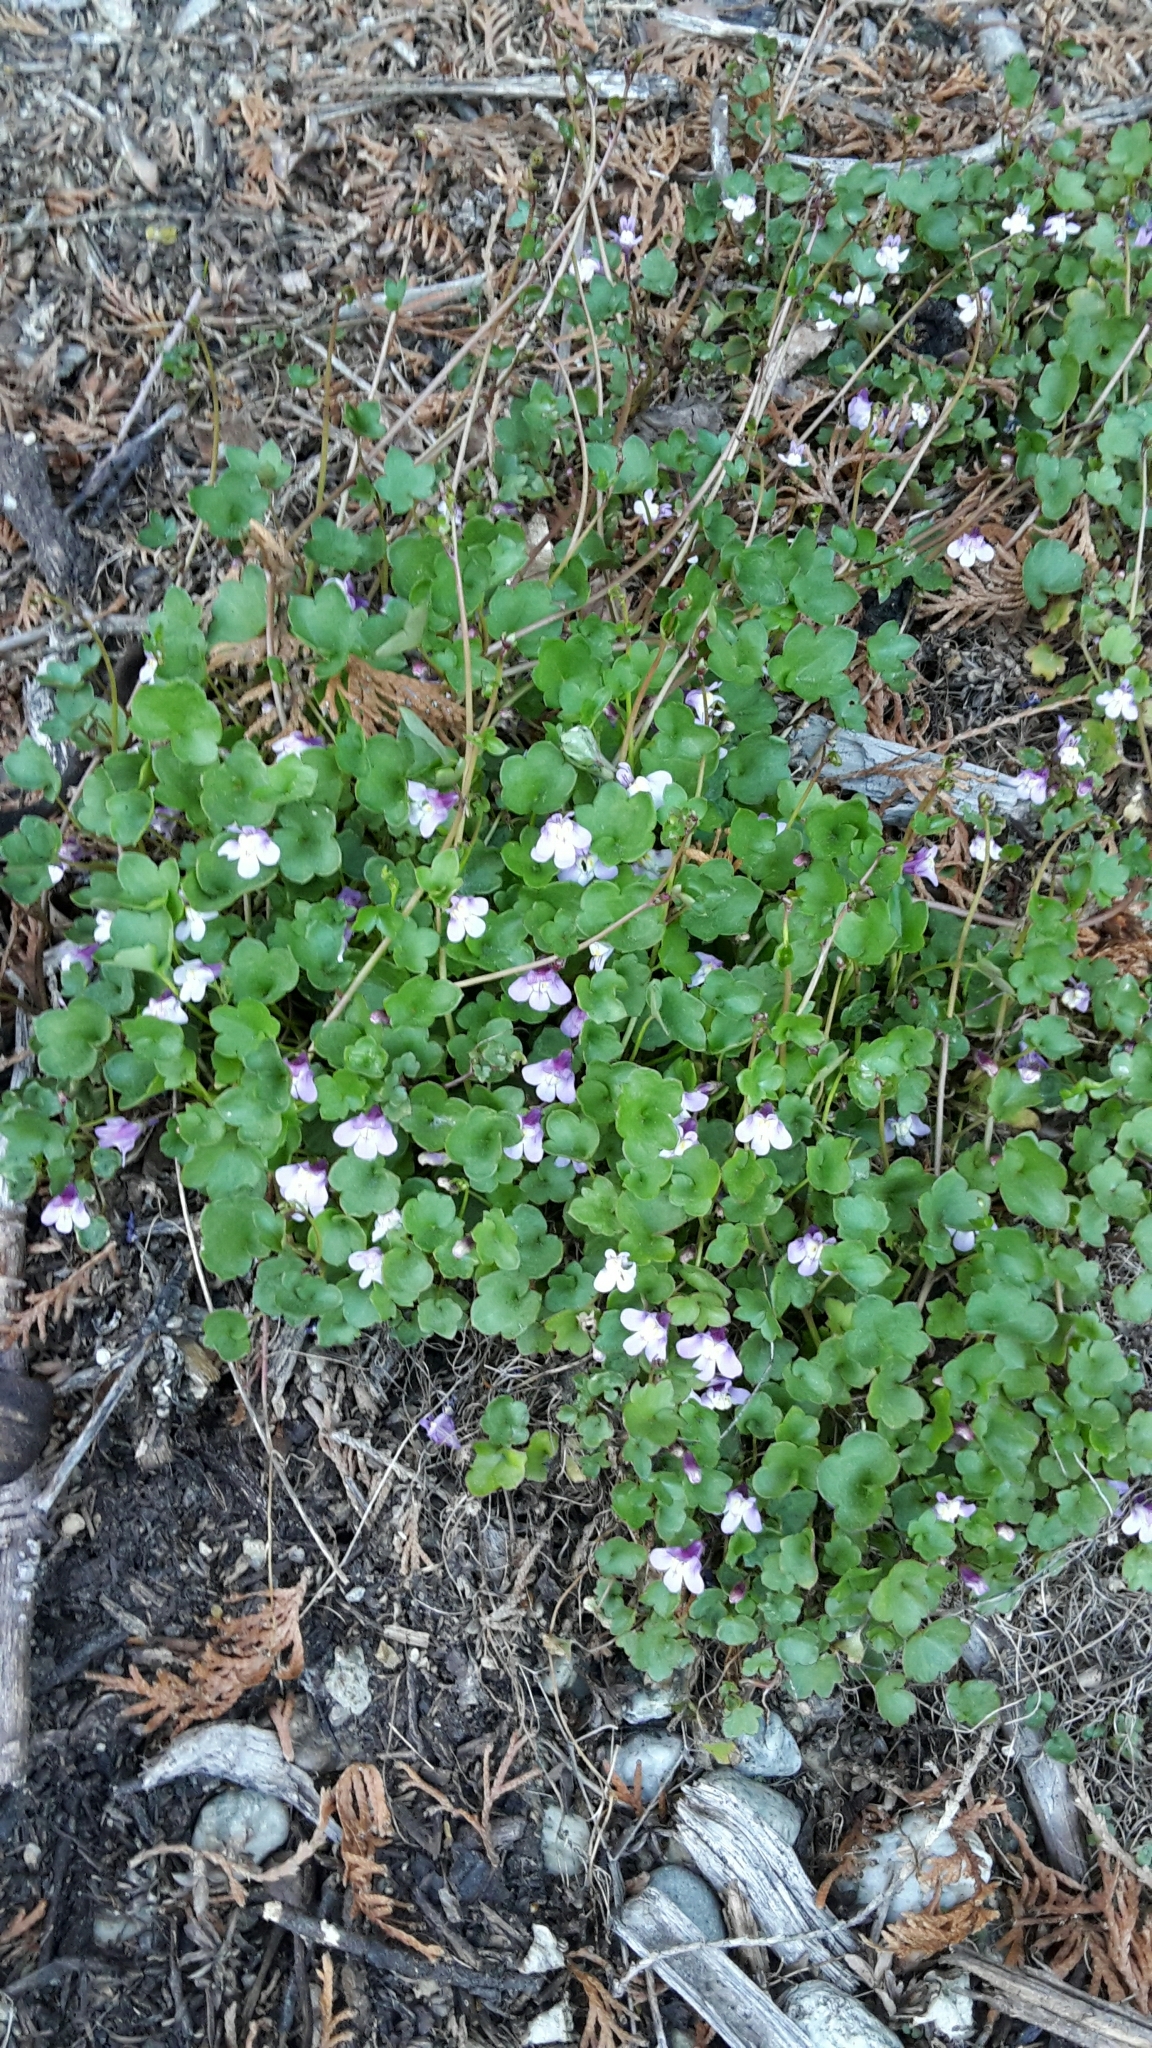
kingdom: Plantae
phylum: Tracheophyta
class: Magnoliopsida
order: Lamiales
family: Plantaginaceae
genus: Cymbalaria
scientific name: Cymbalaria muralis
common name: Ivy-leaved toadflax
